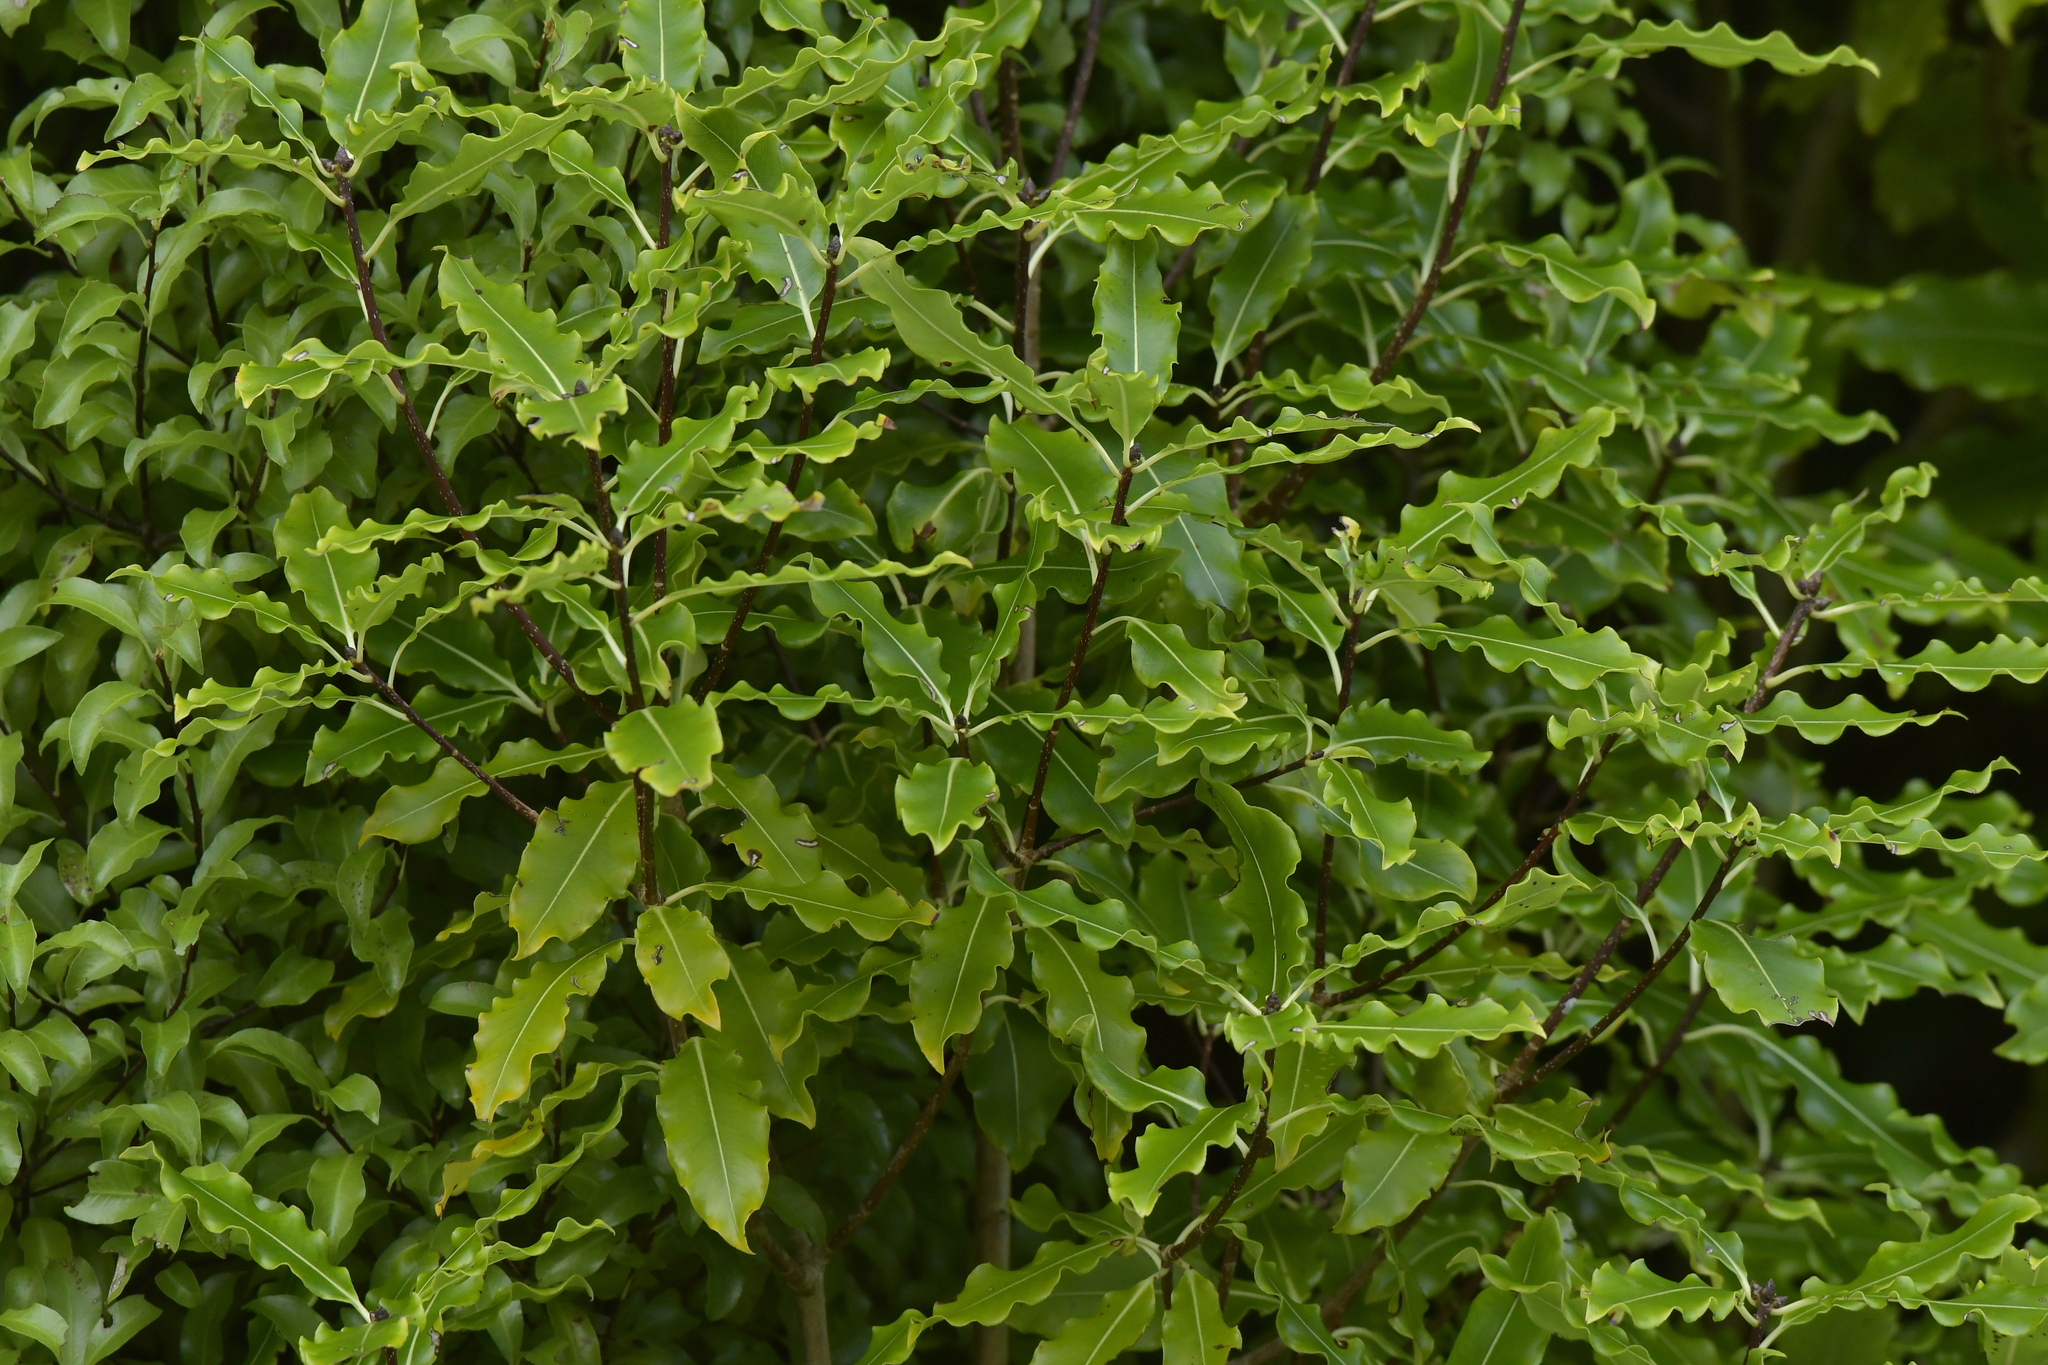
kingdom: Plantae
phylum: Tracheophyta
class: Magnoliopsida
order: Apiales
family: Pittosporaceae
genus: Pittosporum
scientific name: Pittosporum eugenioides
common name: Lemonwood
